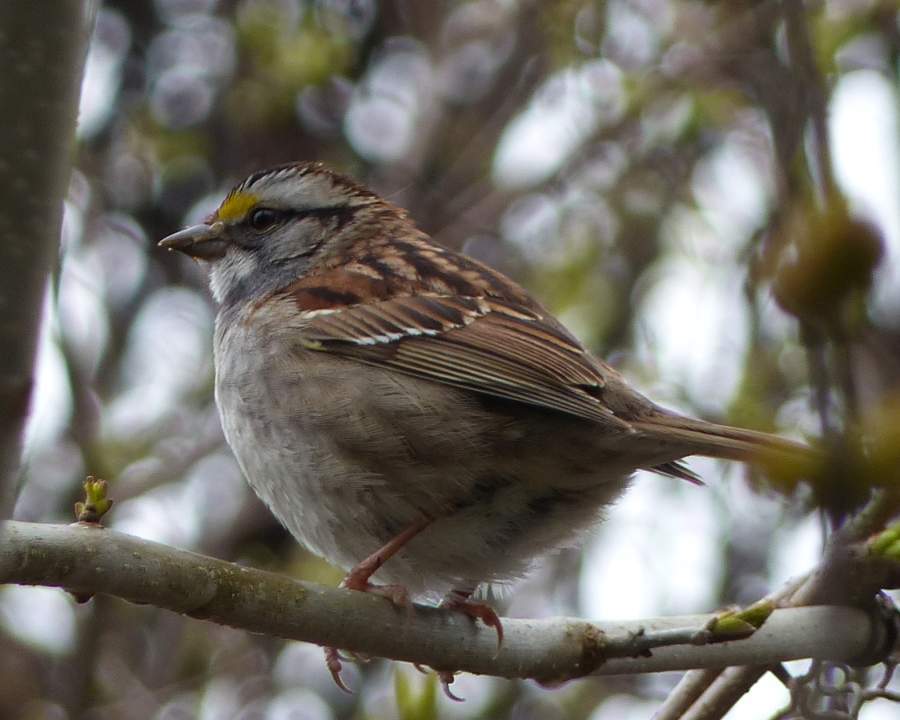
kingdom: Animalia
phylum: Chordata
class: Aves
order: Passeriformes
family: Passerellidae
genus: Zonotrichia
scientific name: Zonotrichia albicollis
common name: White-throated sparrow
